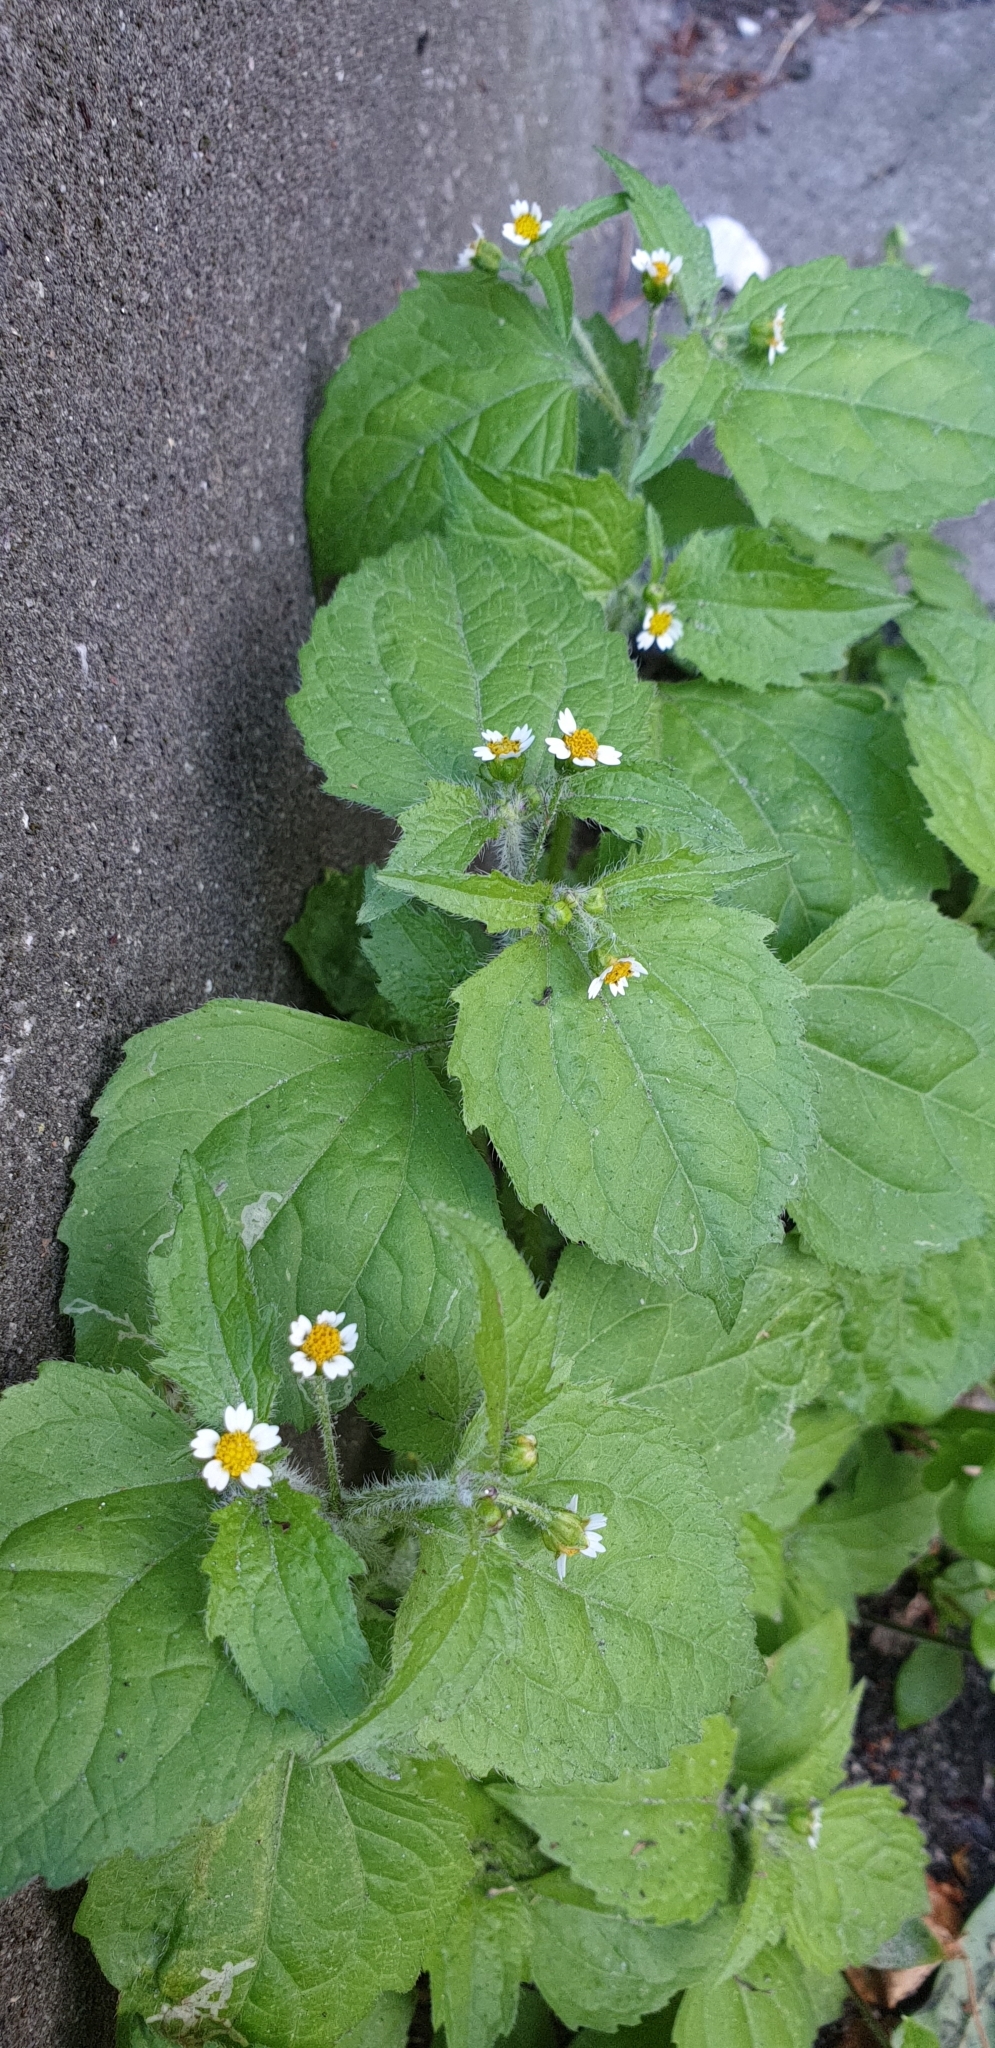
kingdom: Plantae
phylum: Tracheophyta
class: Magnoliopsida
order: Asterales
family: Asteraceae
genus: Galinsoga
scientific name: Galinsoga quadriradiata
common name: Shaggy soldier
